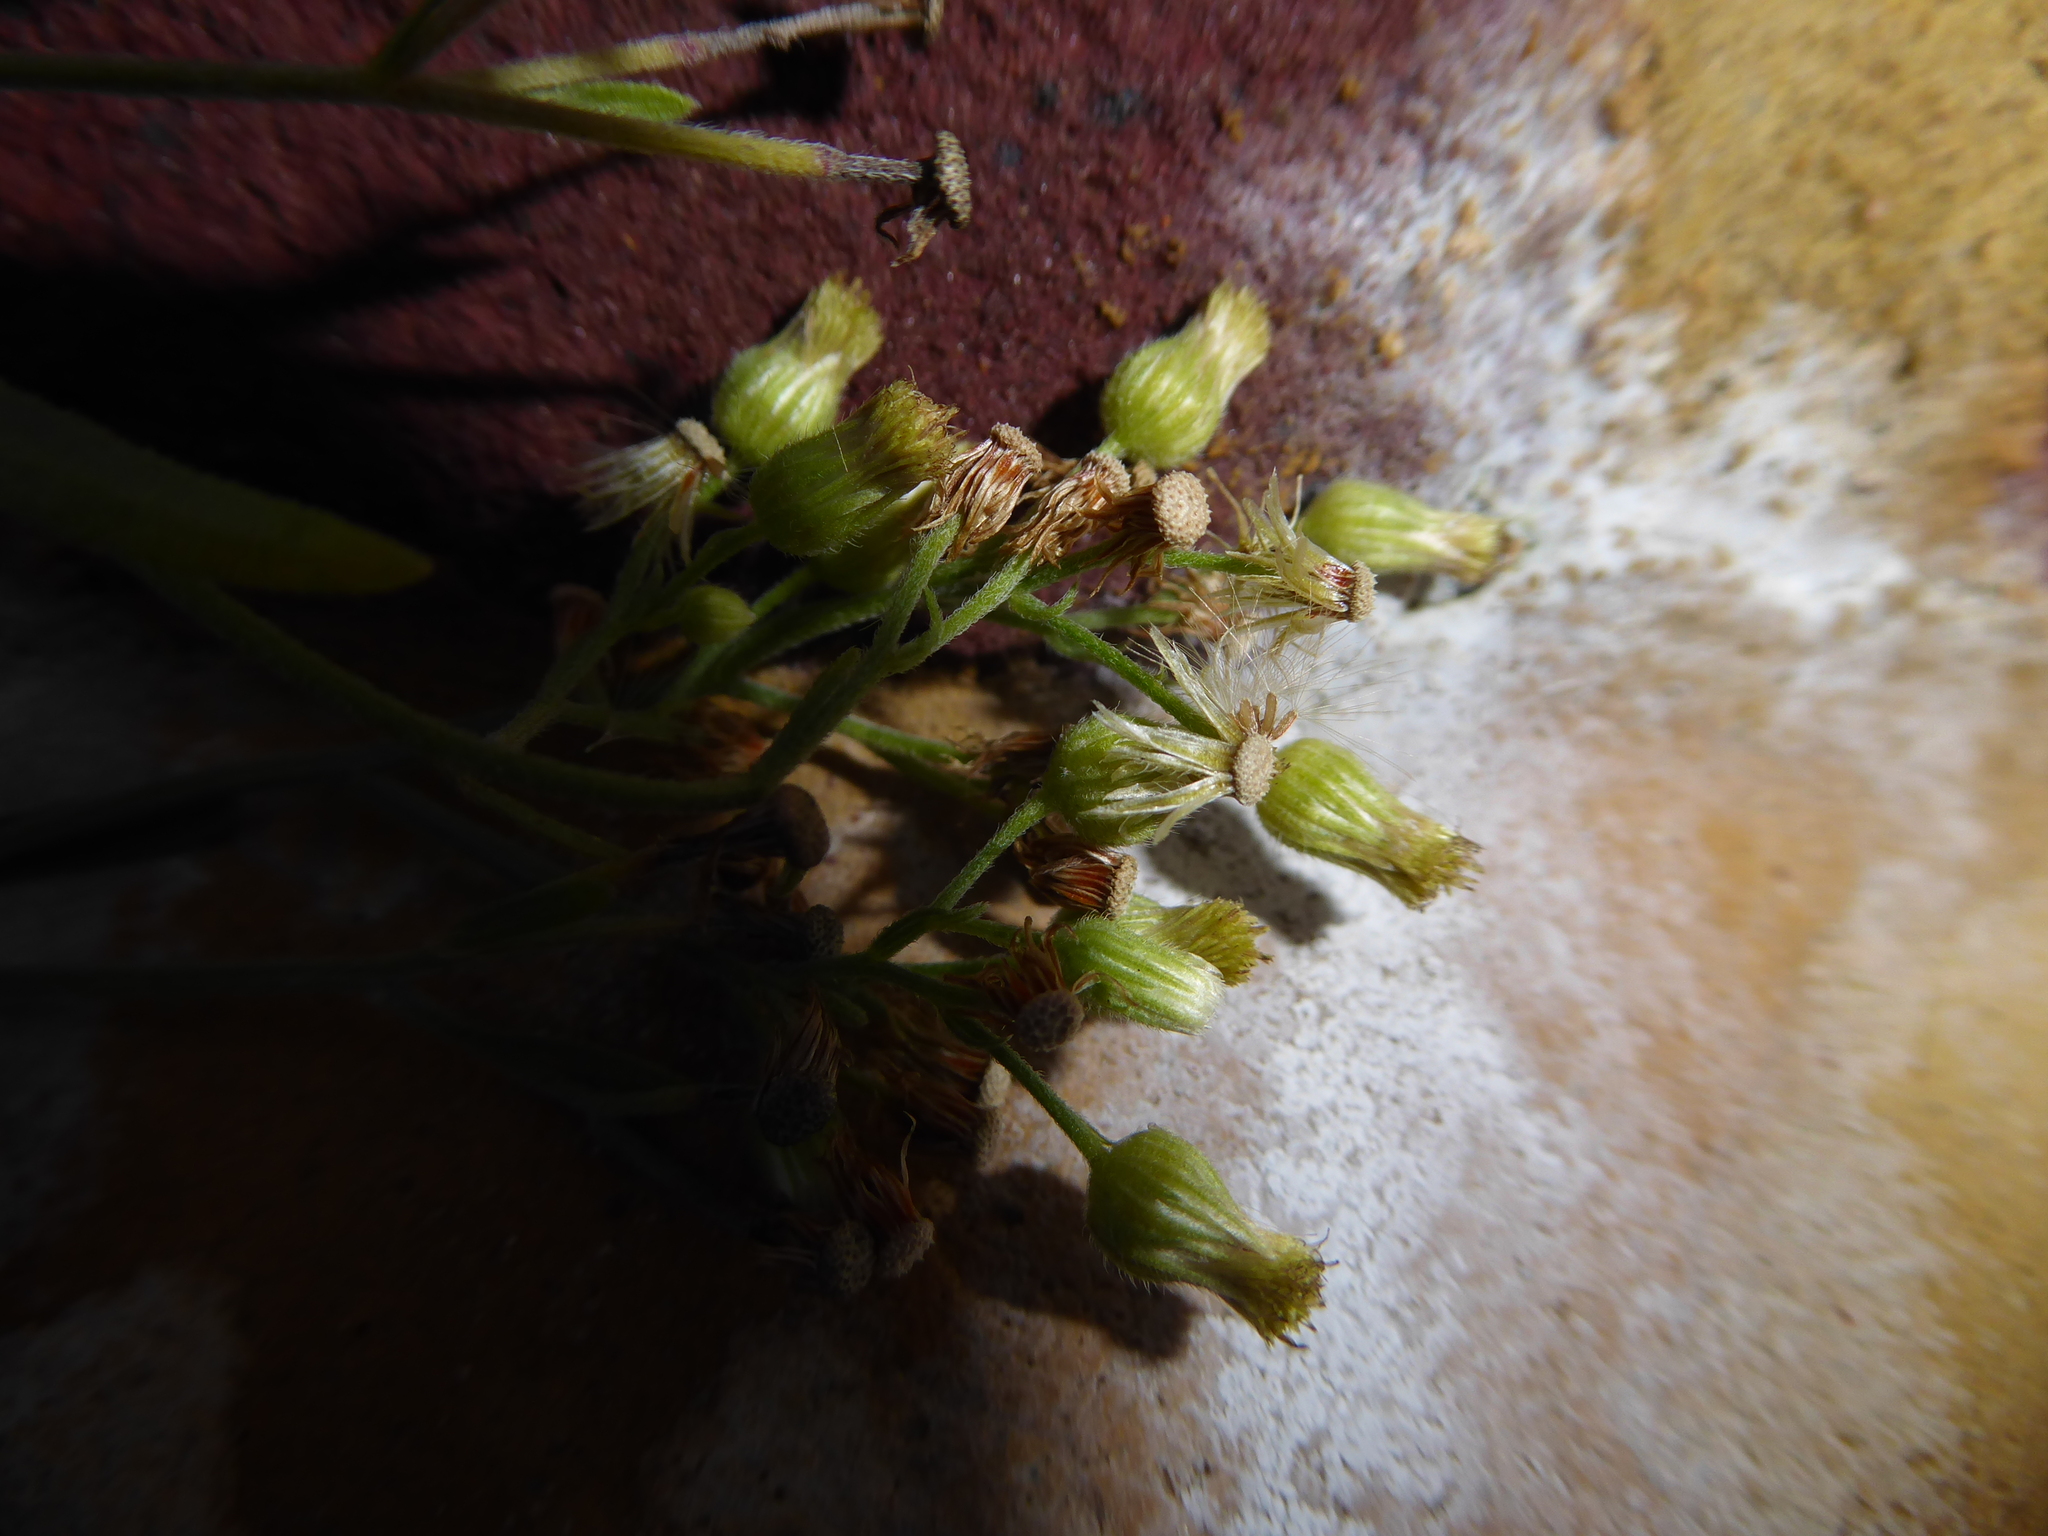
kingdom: Plantae
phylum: Tracheophyta
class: Magnoliopsida
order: Asterales
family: Asteraceae
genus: Erigeron
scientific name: Erigeron sumatrensis
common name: Daisy
